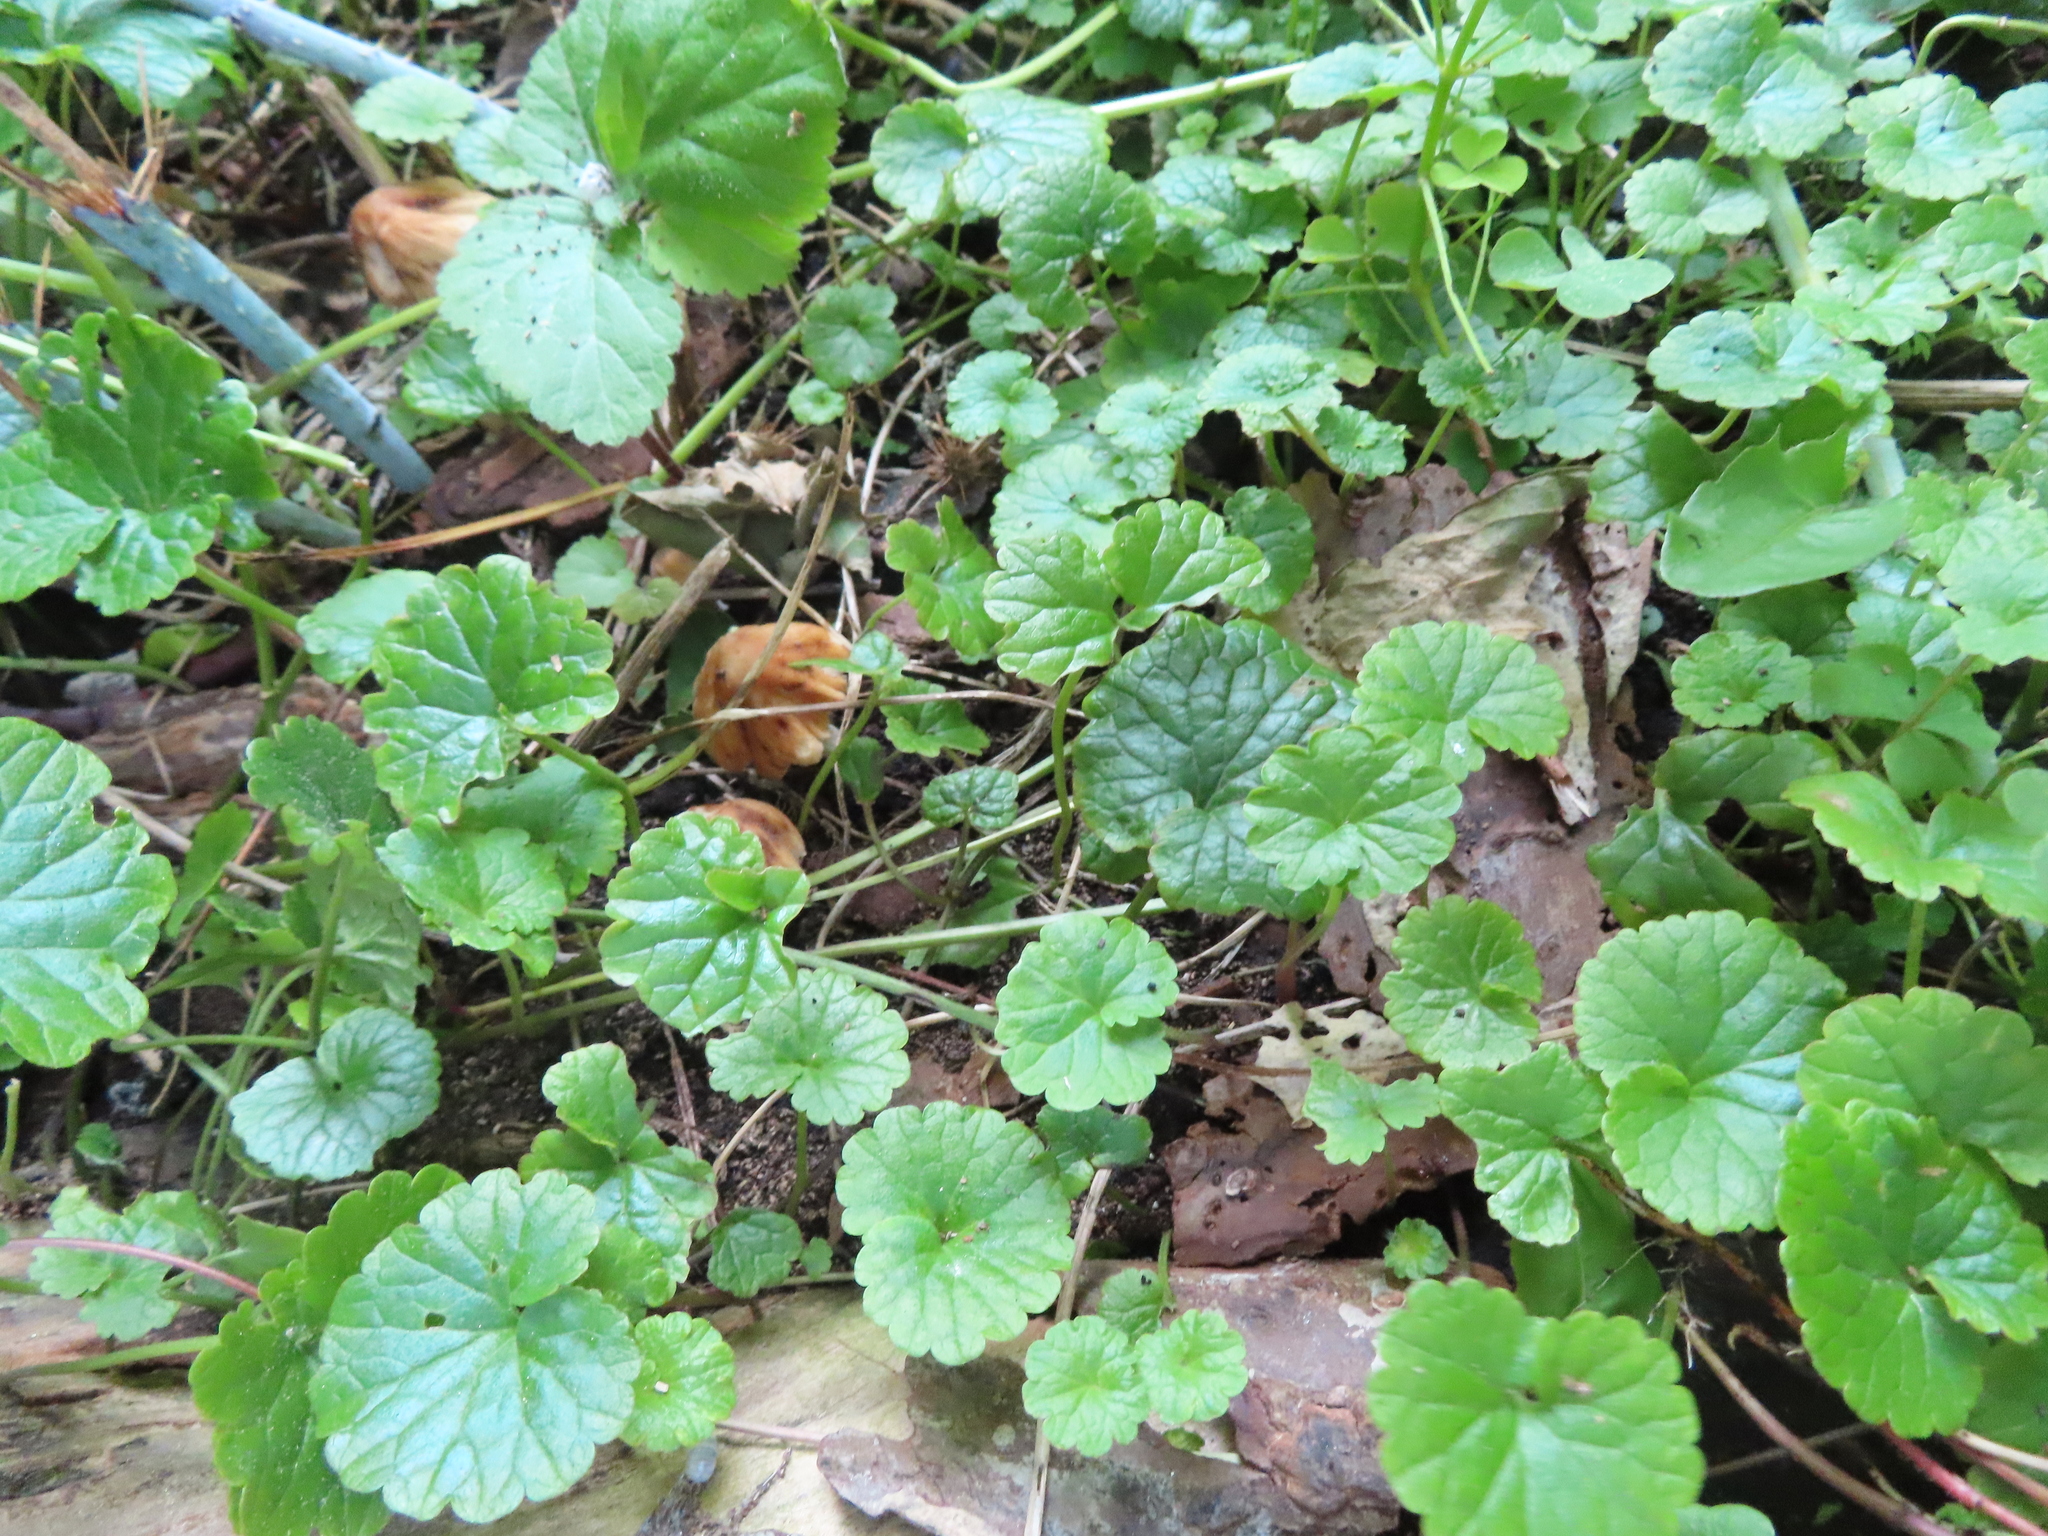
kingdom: Plantae
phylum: Tracheophyta
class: Magnoliopsida
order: Lamiales
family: Lamiaceae
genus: Glechoma
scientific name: Glechoma hederacea
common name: Ground ivy
